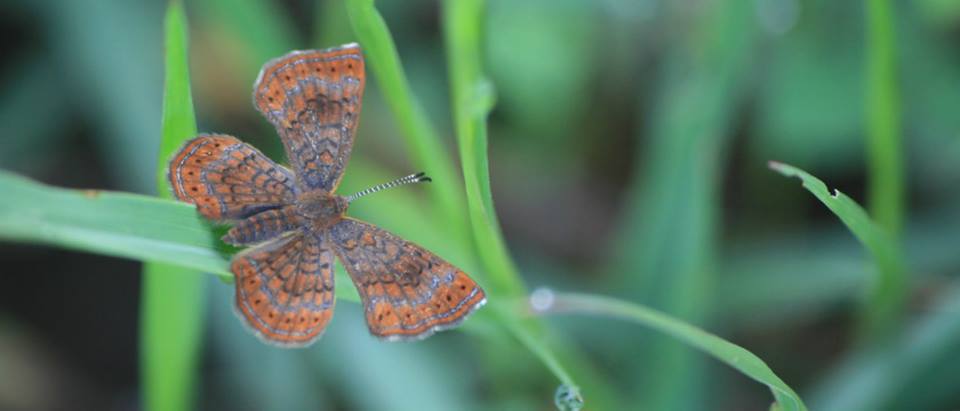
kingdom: Animalia
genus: Calephelis
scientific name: Calephelis
